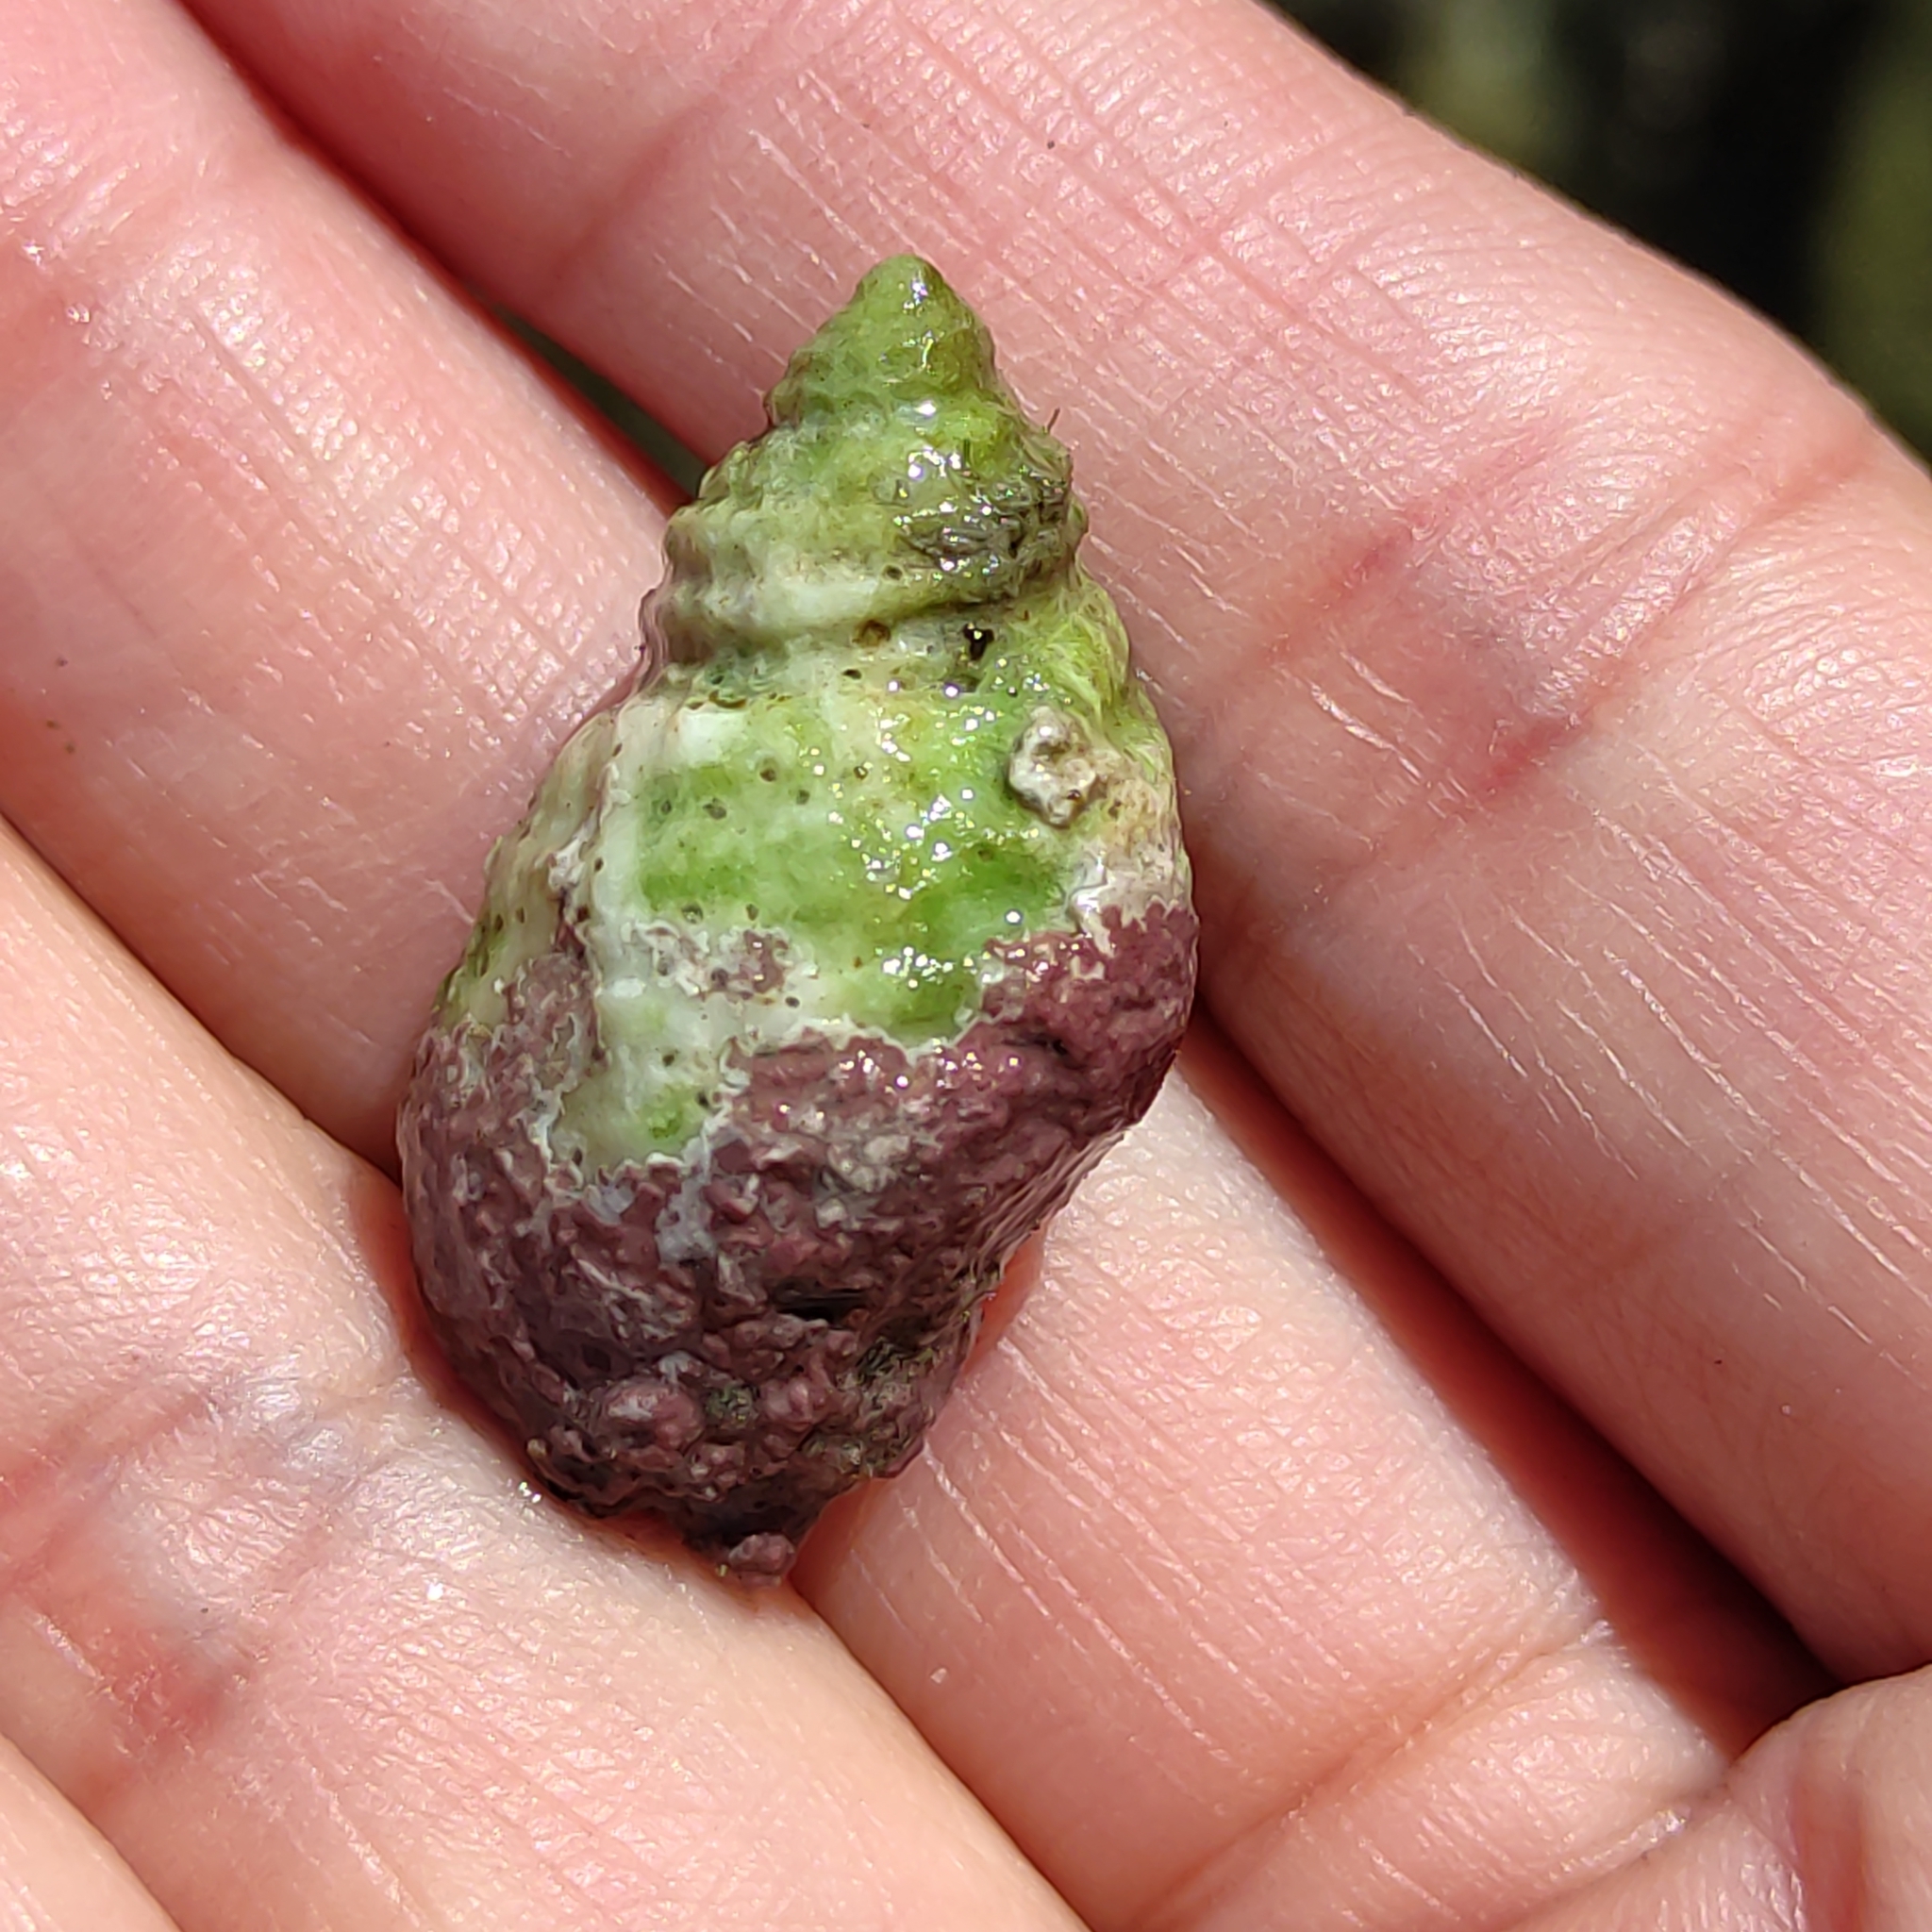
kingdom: Animalia
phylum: Mollusca
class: Gastropoda
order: Neogastropoda
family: Muricidae
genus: Haustrum
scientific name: Haustrum lacunosum
